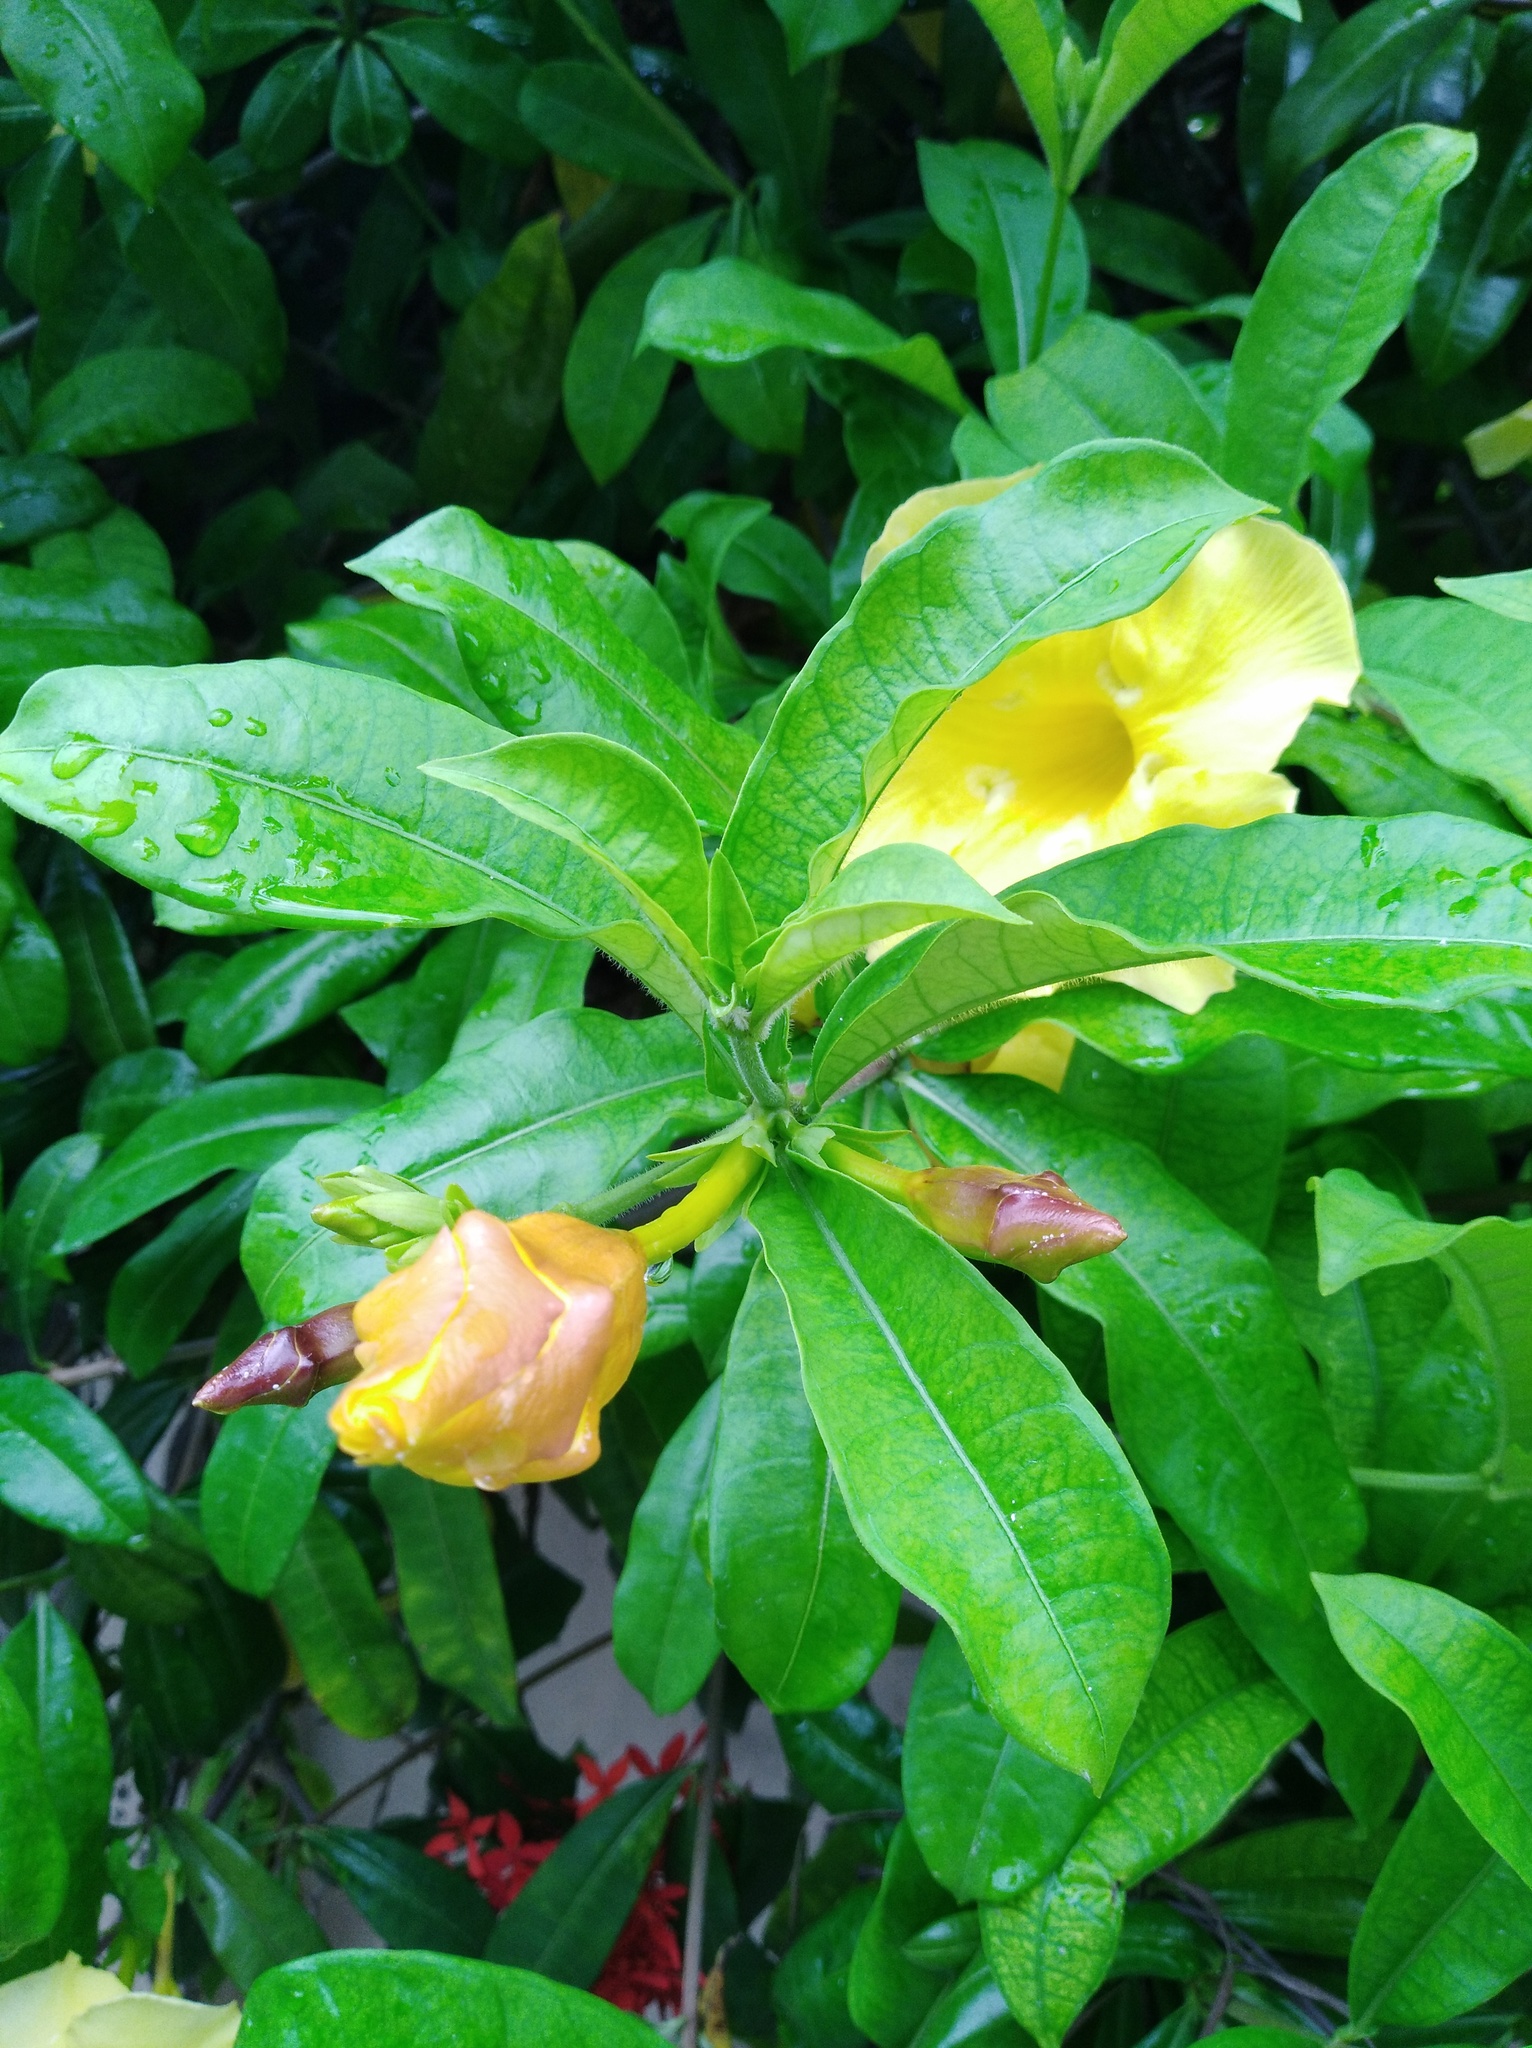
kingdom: Plantae
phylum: Tracheophyta
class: Magnoliopsida
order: Gentianales
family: Apocynaceae
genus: Allamanda
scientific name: Allamanda cathartica
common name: Golden trumpet
